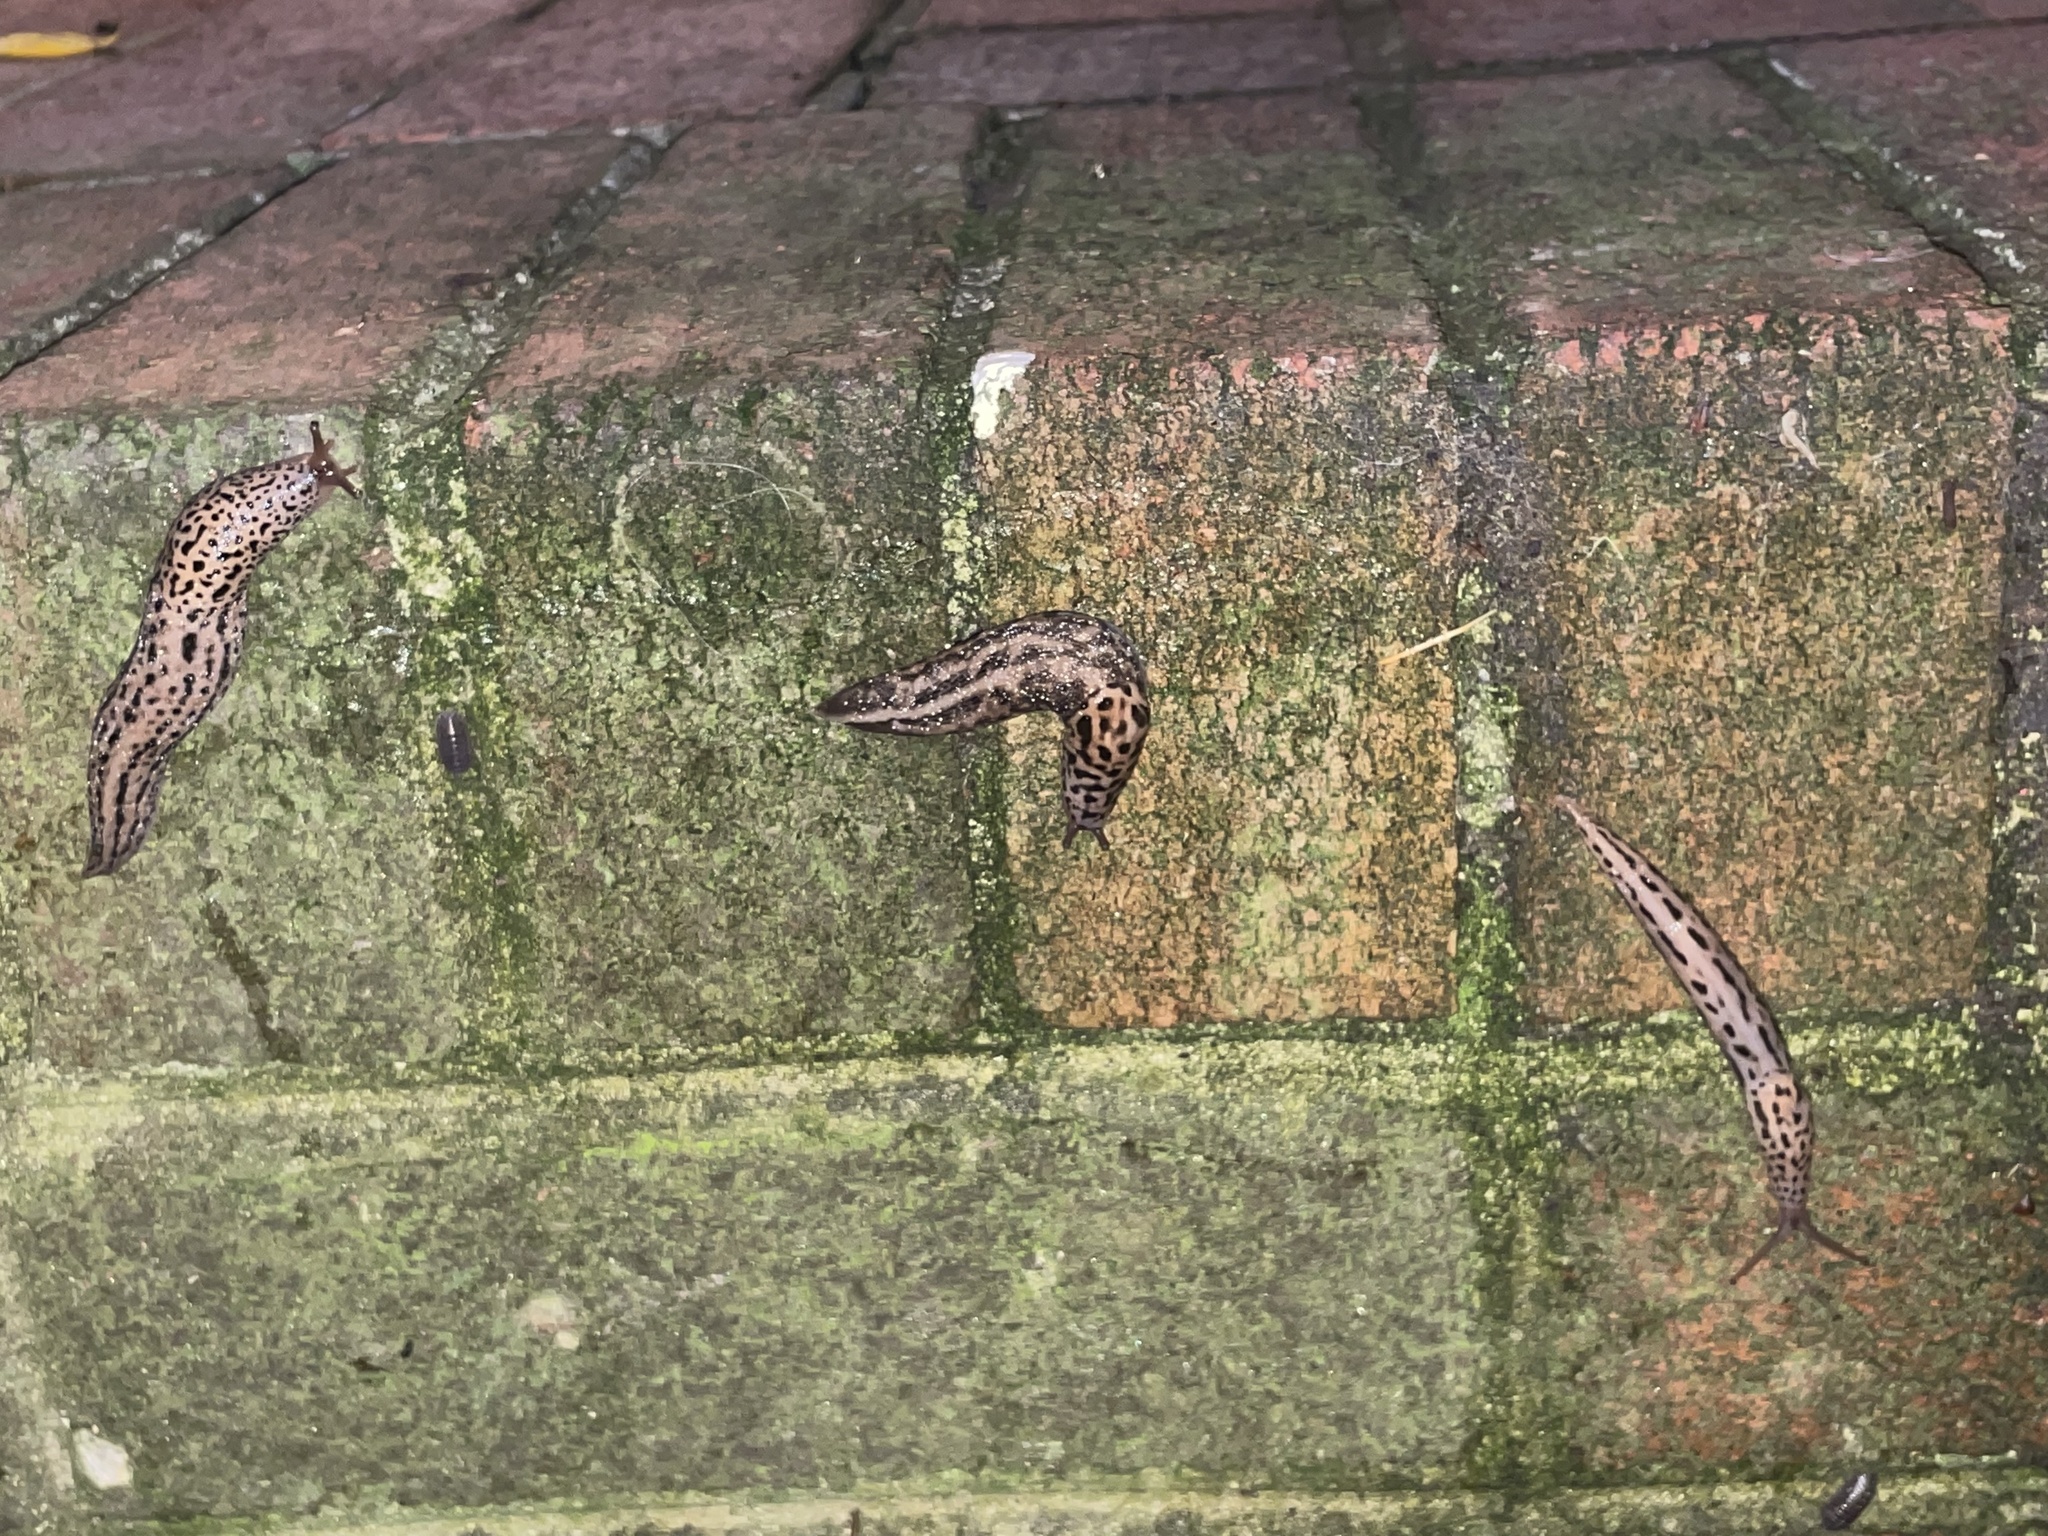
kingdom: Animalia
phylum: Mollusca
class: Gastropoda
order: Stylommatophora
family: Limacidae
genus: Limax
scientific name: Limax maximus
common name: Great grey slug
